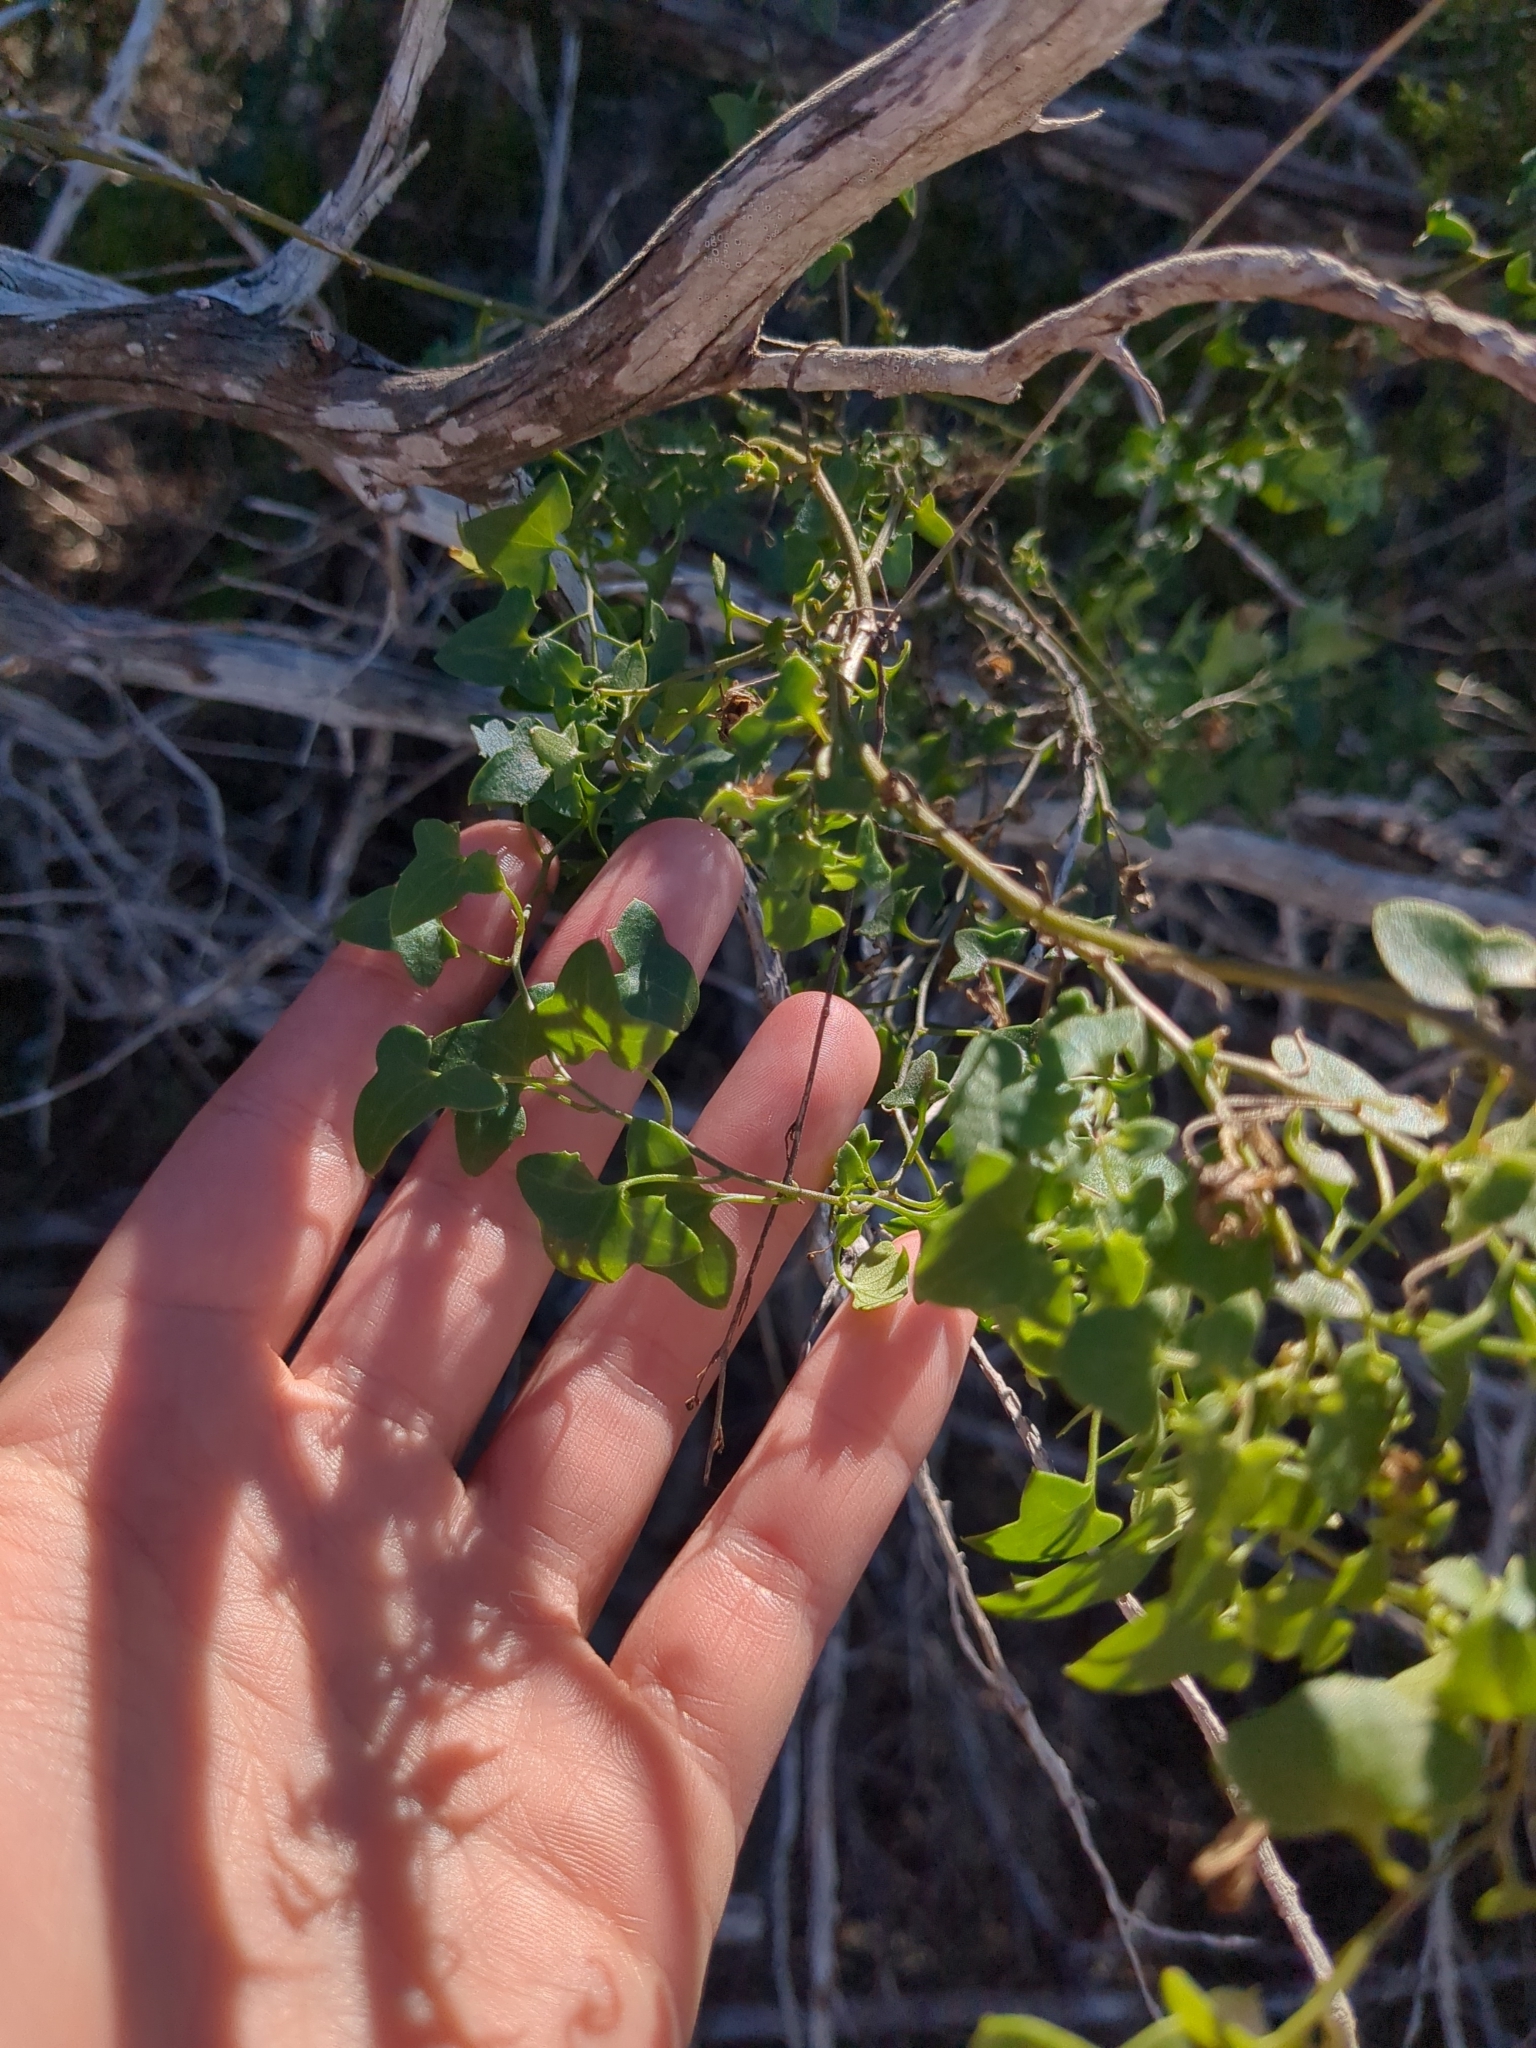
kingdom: Plantae
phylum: Tracheophyta
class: Magnoliopsida
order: Lamiales
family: Plantaginaceae
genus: Maurandella
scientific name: Maurandella antirrhiniflora
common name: Violet twining-snapdragon
